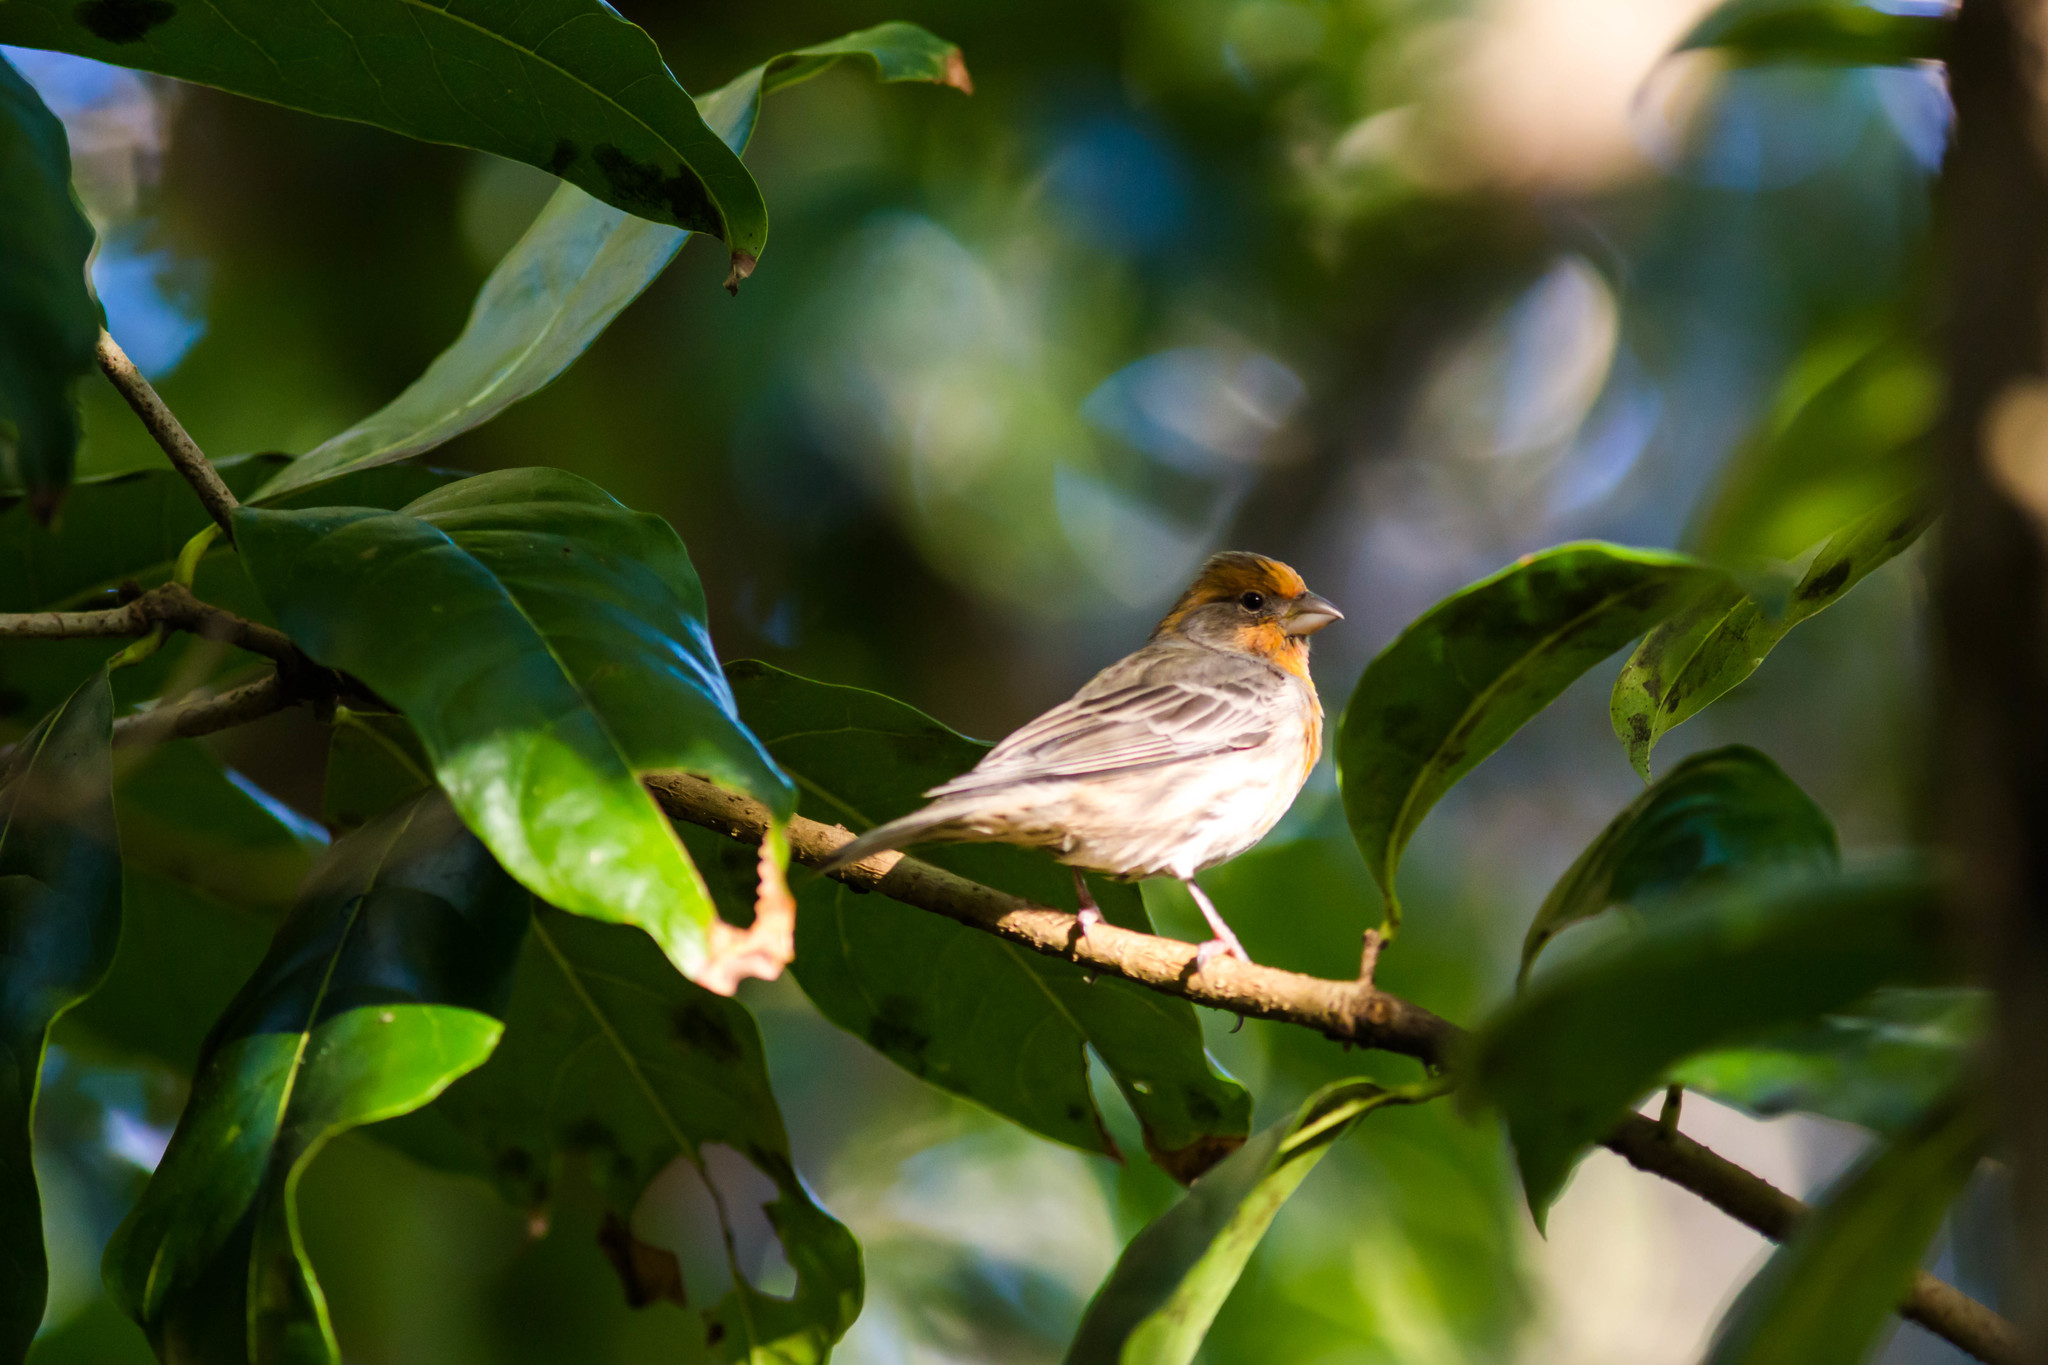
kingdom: Animalia
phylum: Chordata
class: Aves
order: Passeriformes
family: Fringillidae
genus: Haemorhous
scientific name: Haemorhous mexicanus
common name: House finch
